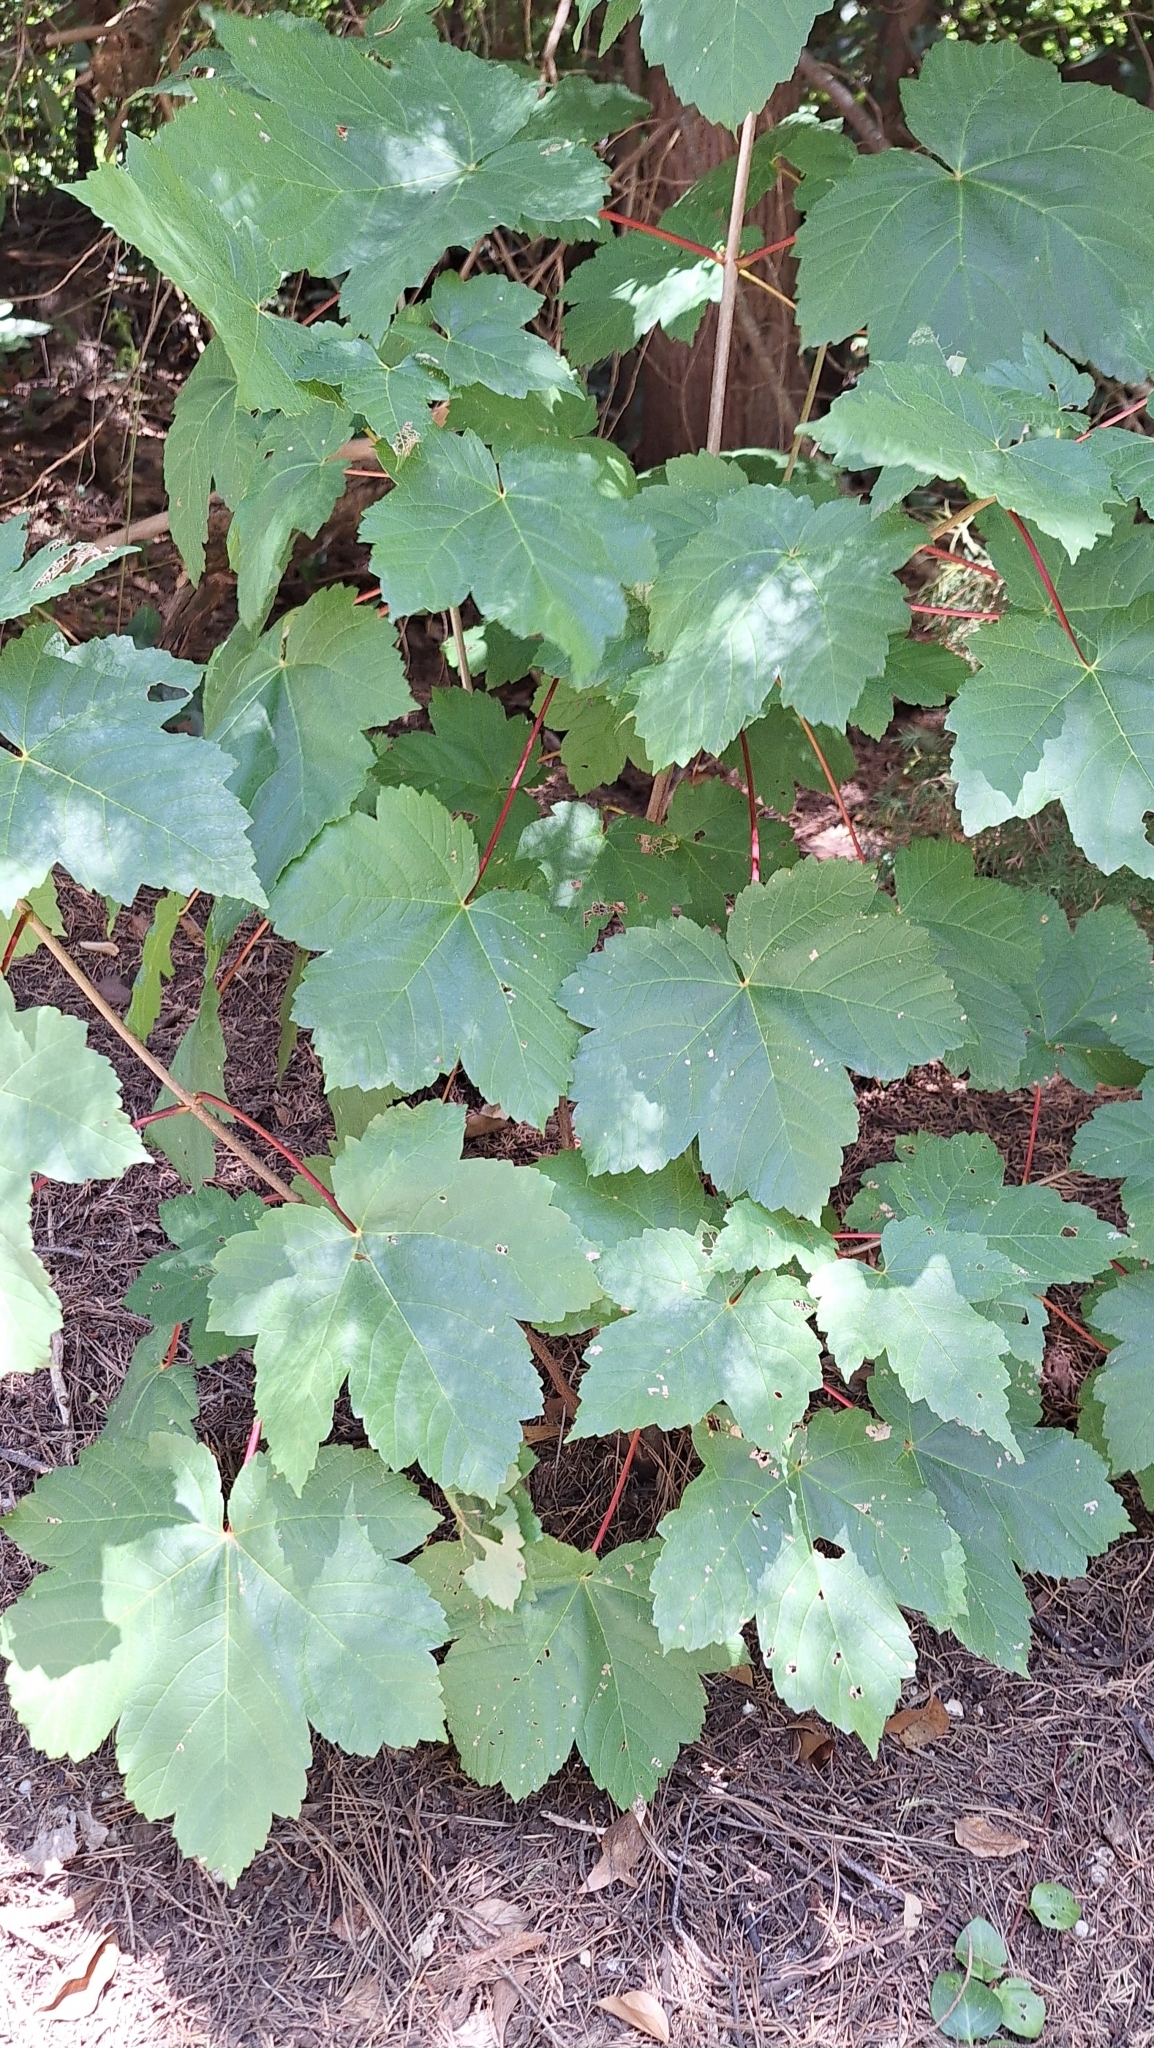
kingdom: Plantae
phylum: Tracheophyta
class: Magnoliopsida
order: Sapindales
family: Sapindaceae
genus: Acer
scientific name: Acer pseudoplatanus
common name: Sycamore
